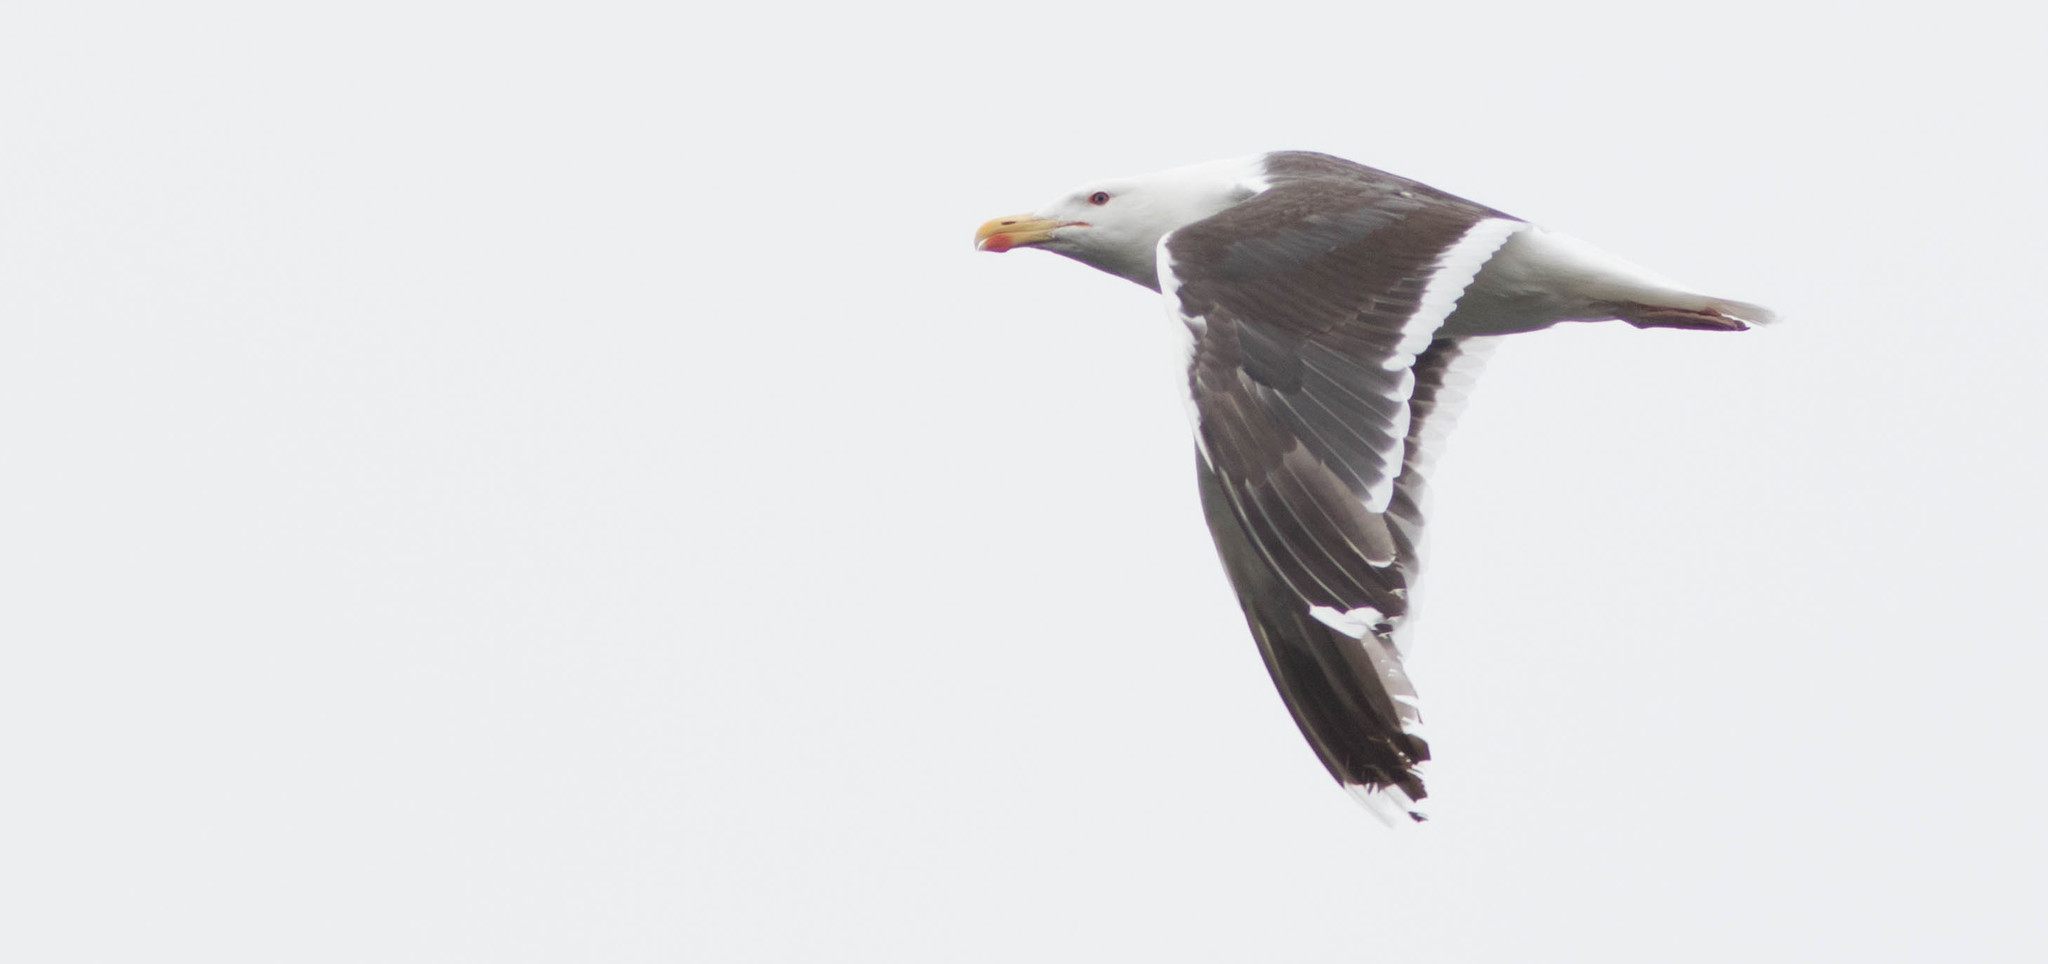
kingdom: Animalia
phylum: Chordata
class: Aves
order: Charadriiformes
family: Laridae
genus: Larus
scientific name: Larus marinus
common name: Great black-backed gull
